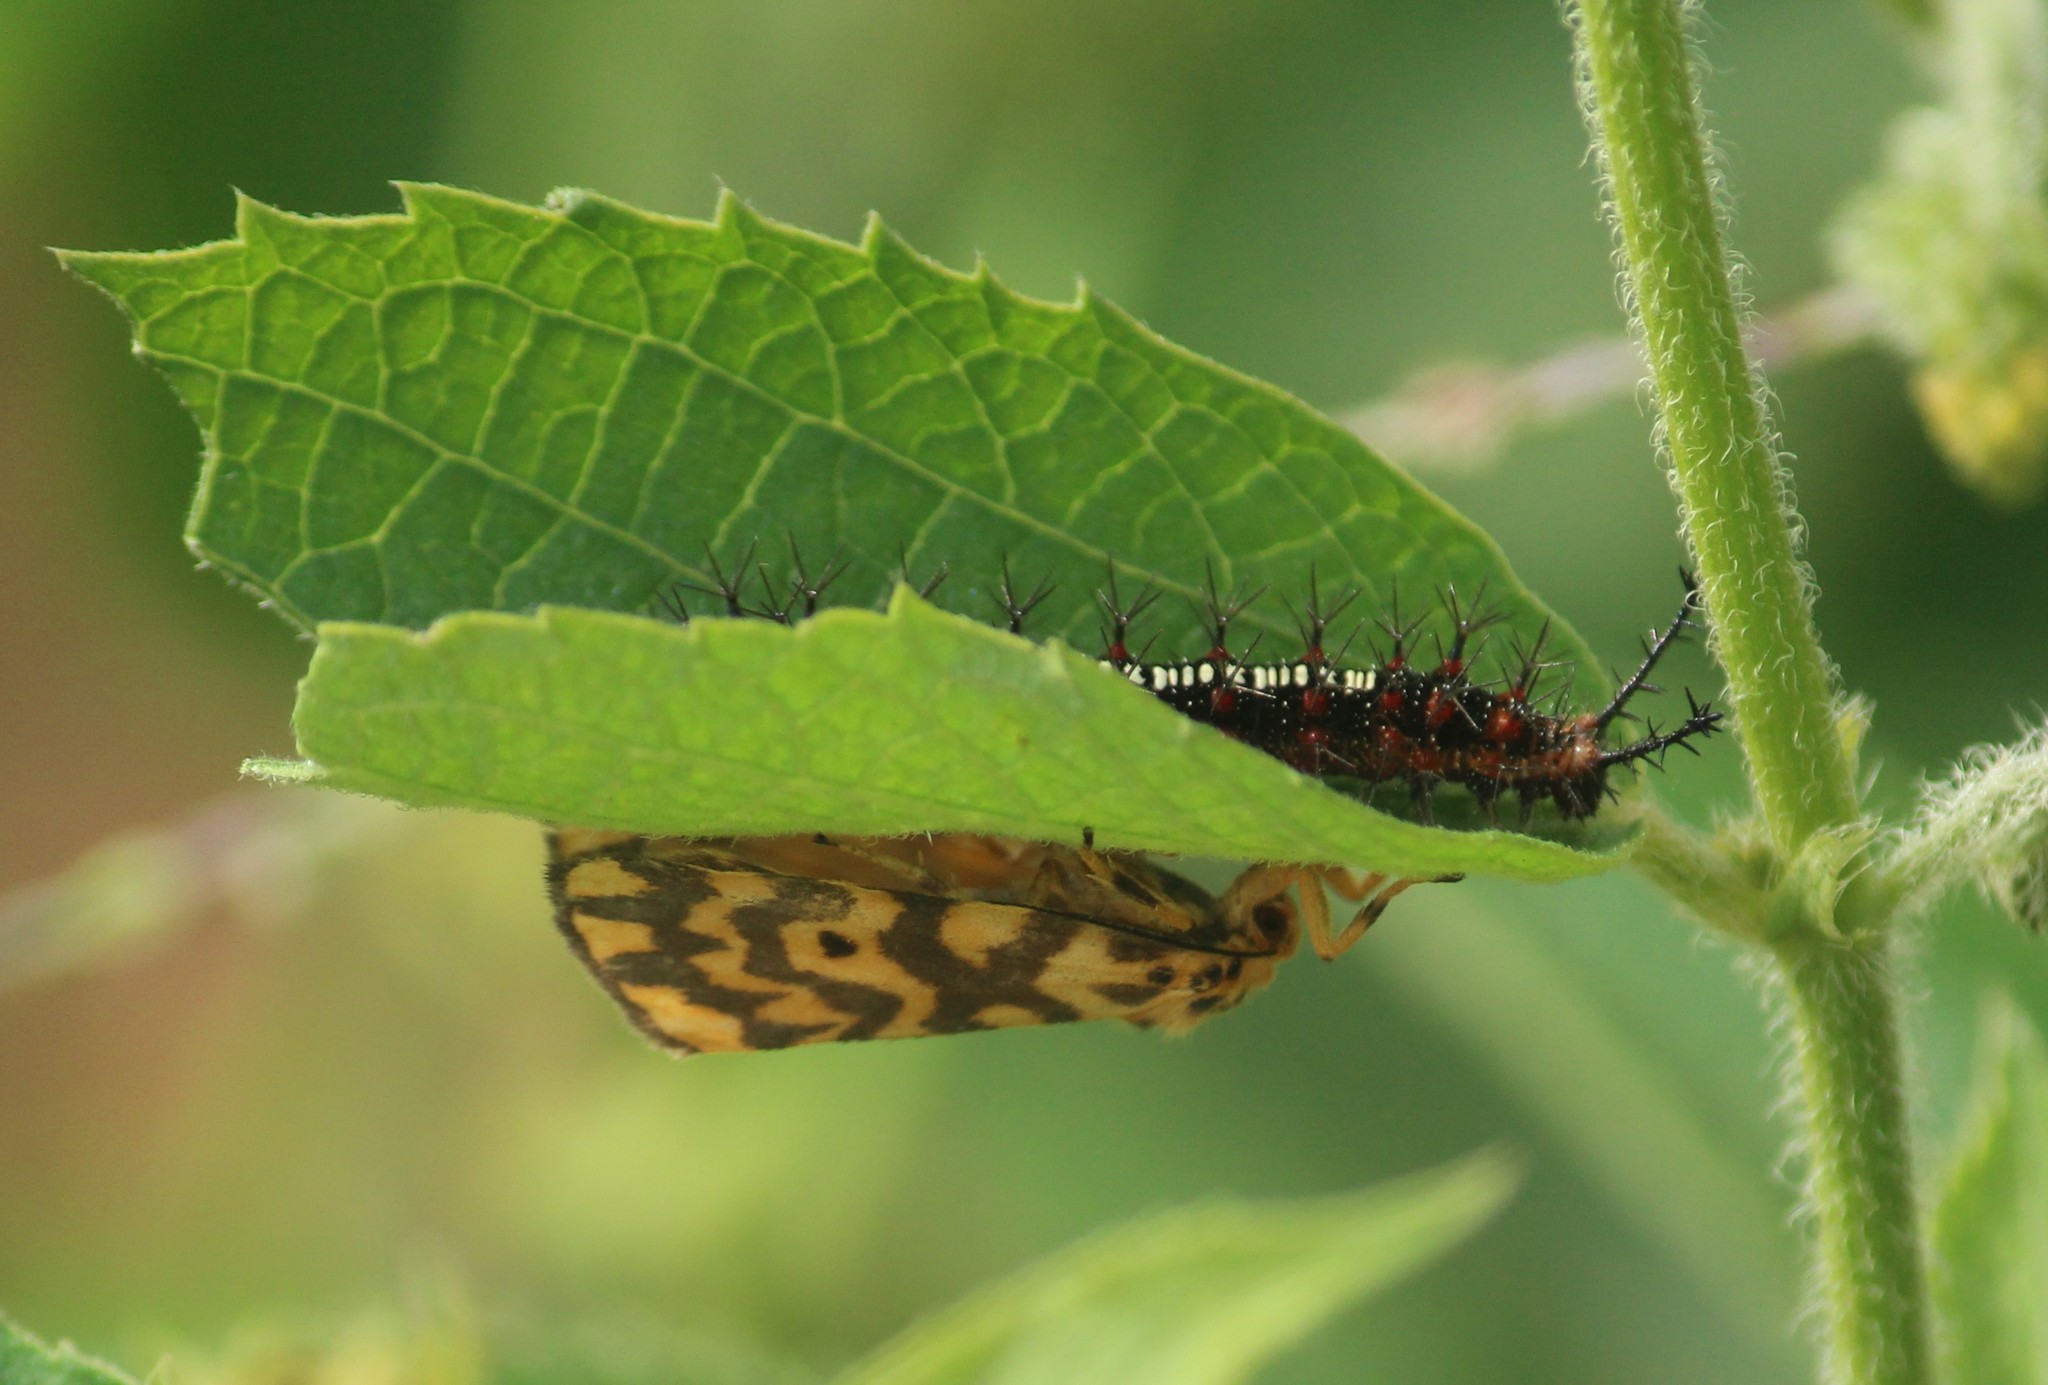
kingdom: Animalia
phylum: Arthropoda
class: Insecta
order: Lepidoptera
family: Erebidae
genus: Nepita
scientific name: Nepita conferta
